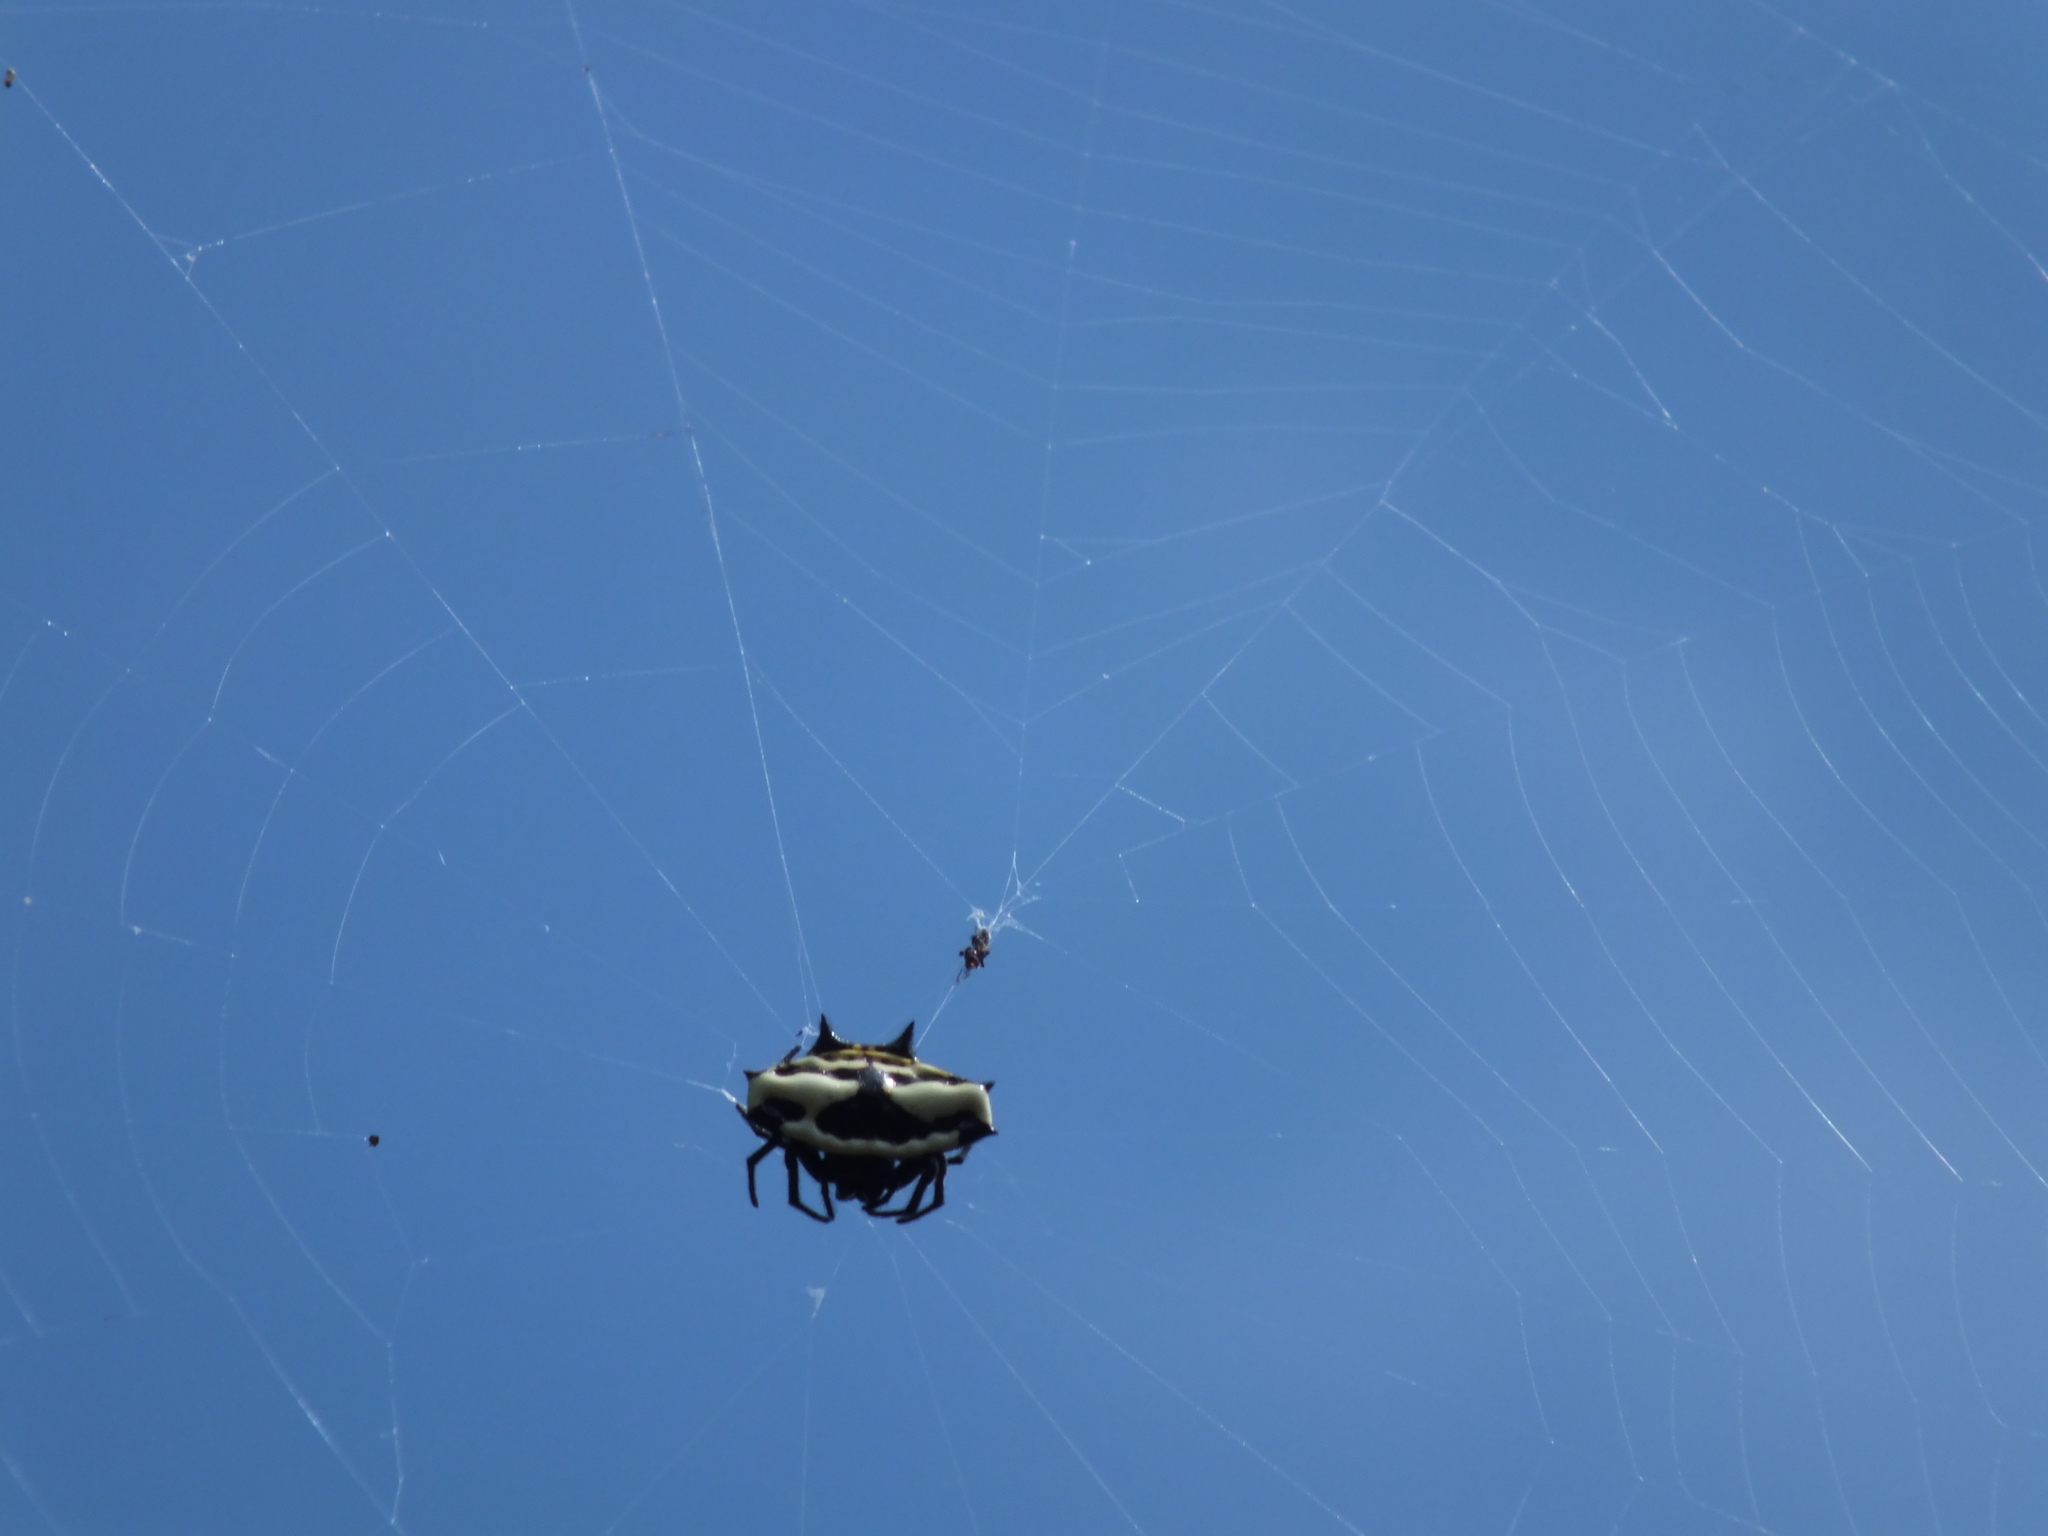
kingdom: Animalia
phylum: Arthropoda
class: Arachnida
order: Araneae
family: Araneidae
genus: Gasteracantha
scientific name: Gasteracantha cancriformis
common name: Orb weavers
